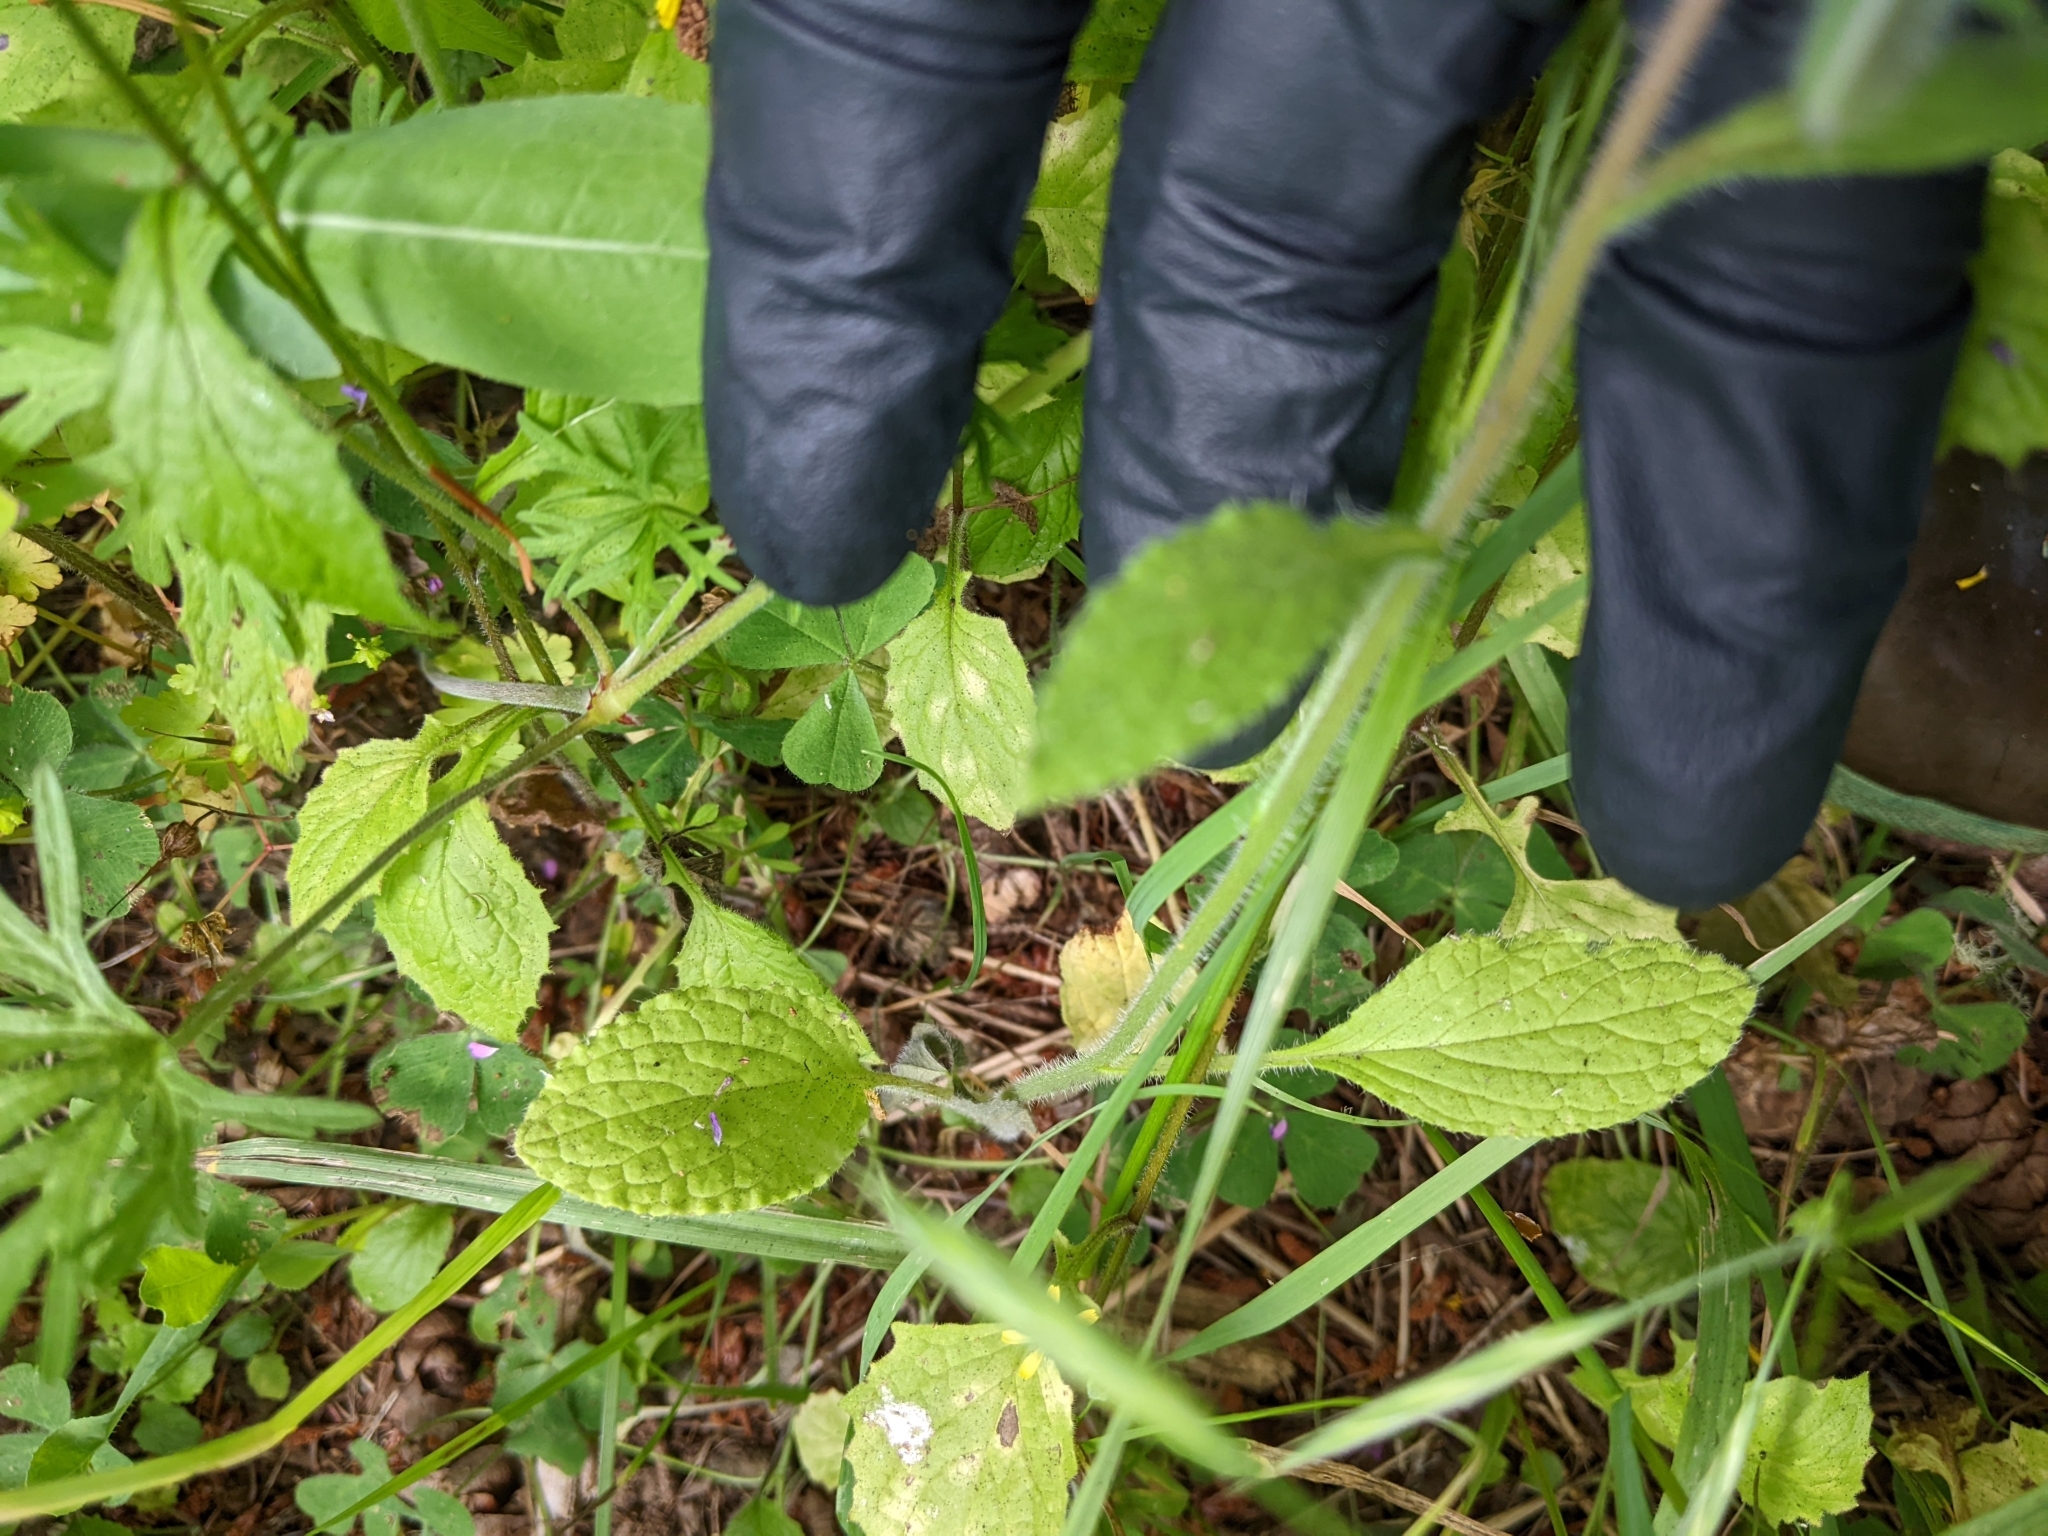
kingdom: Plantae
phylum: Tracheophyta
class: Magnoliopsida
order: Boraginales
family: Boraginaceae
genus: Borago
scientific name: Borago officinalis
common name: Borage
